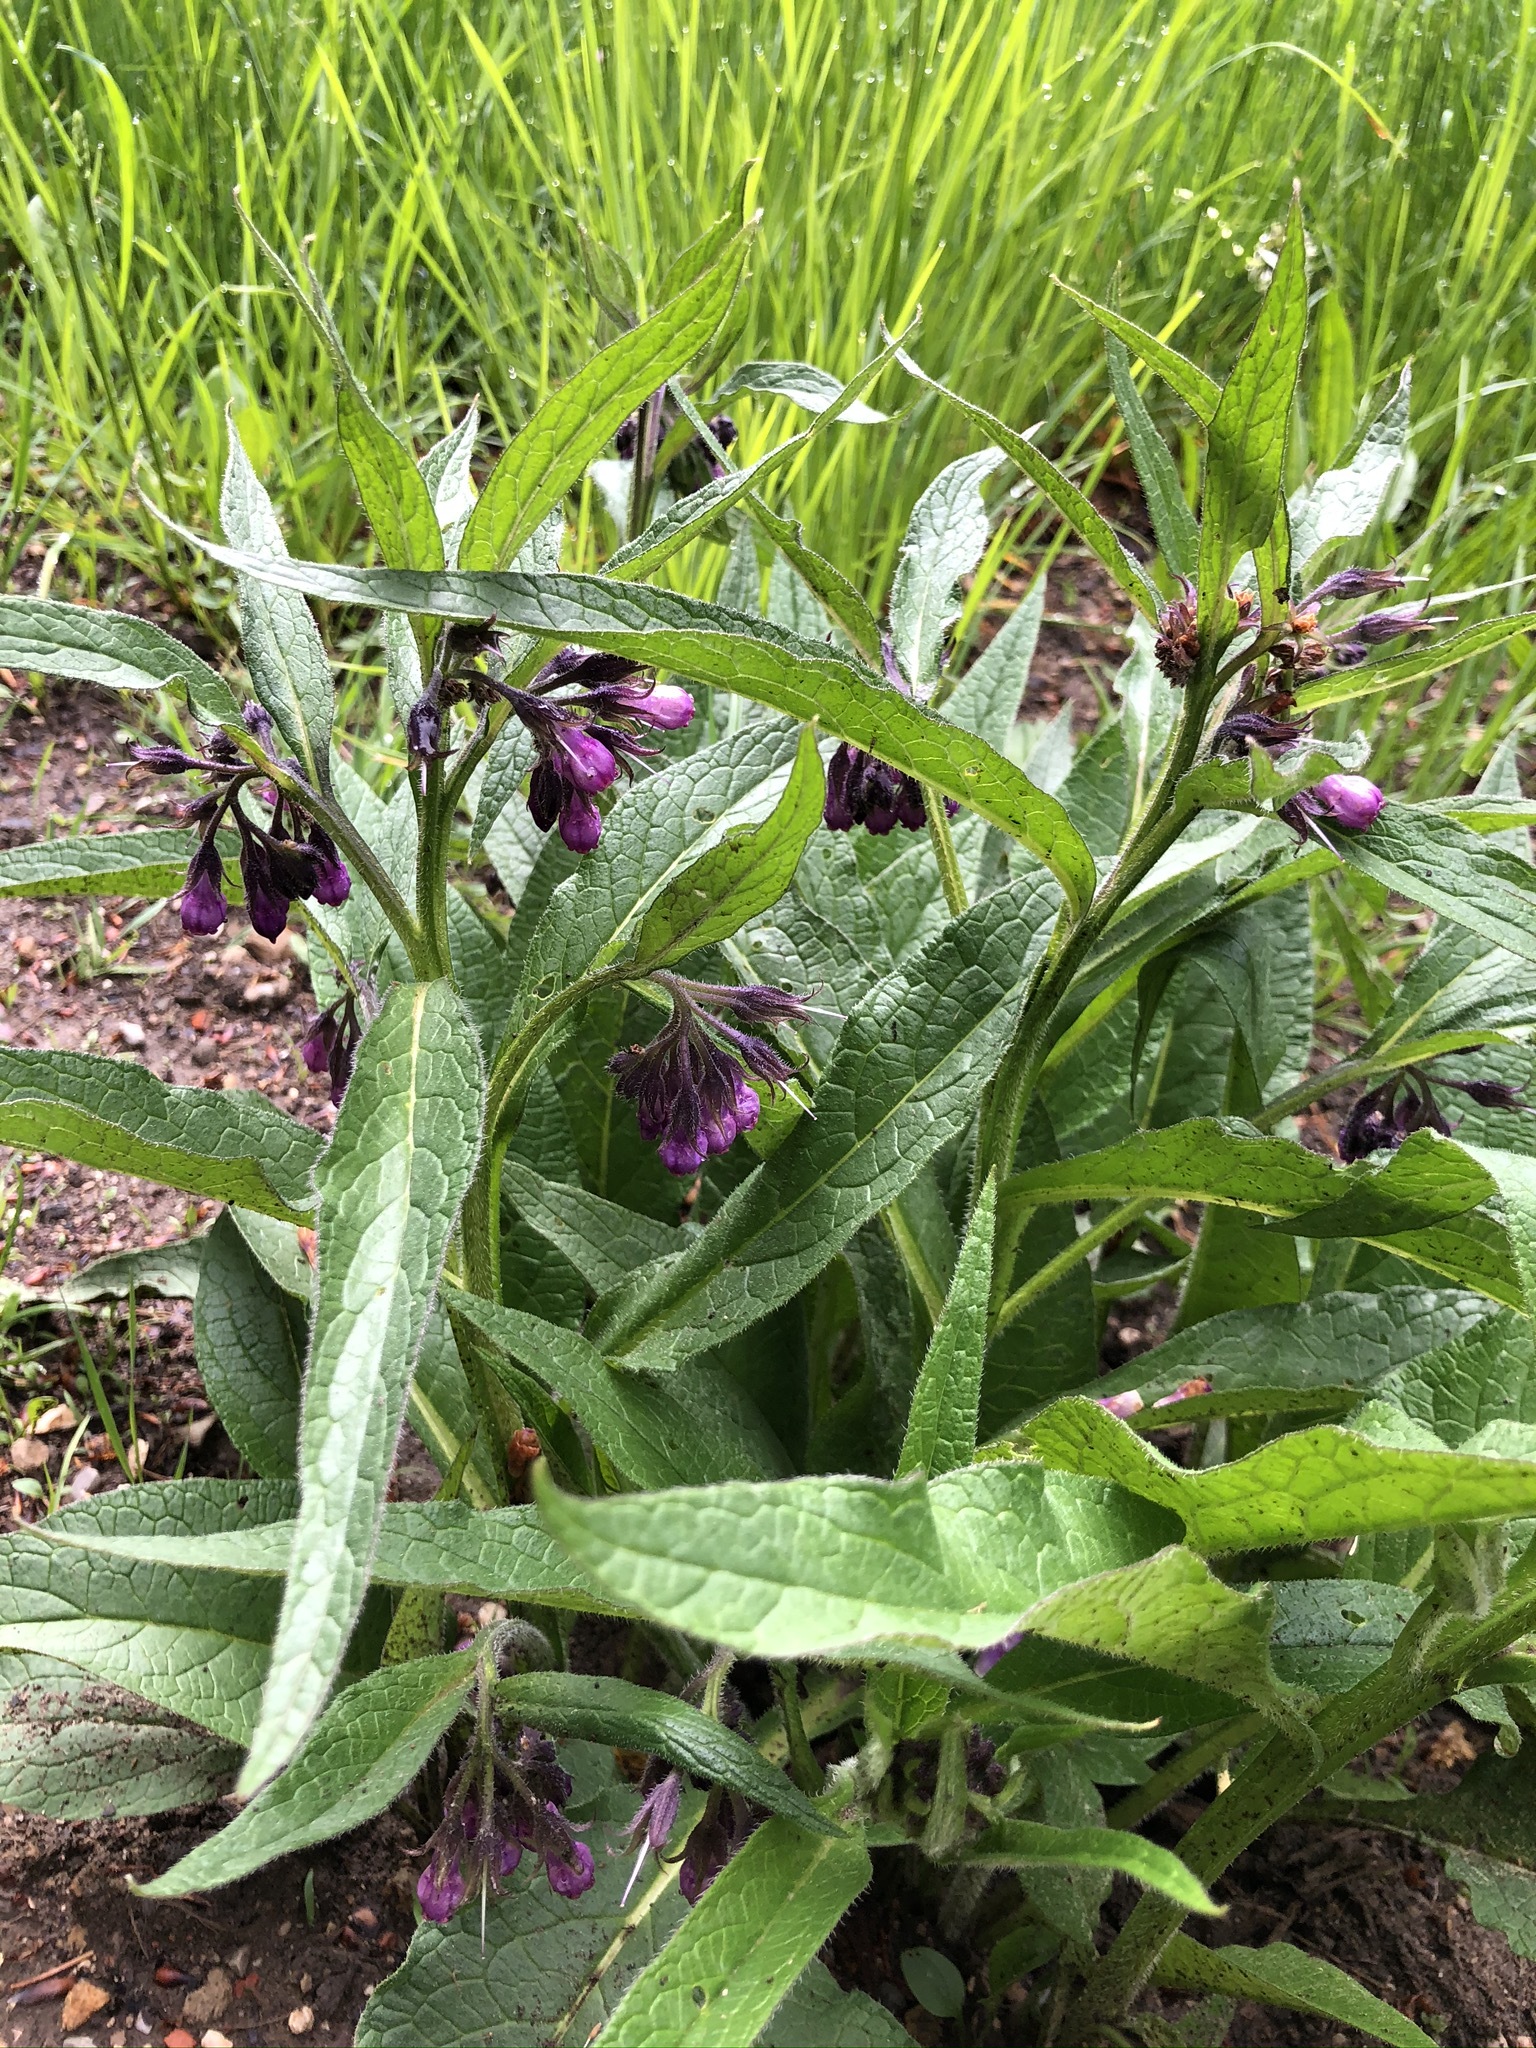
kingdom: Plantae
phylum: Tracheophyta
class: Magnoliopsida
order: Boraginales
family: Boraginaceae
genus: Symphytum
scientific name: Symphytum officinale
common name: Common comfrey
